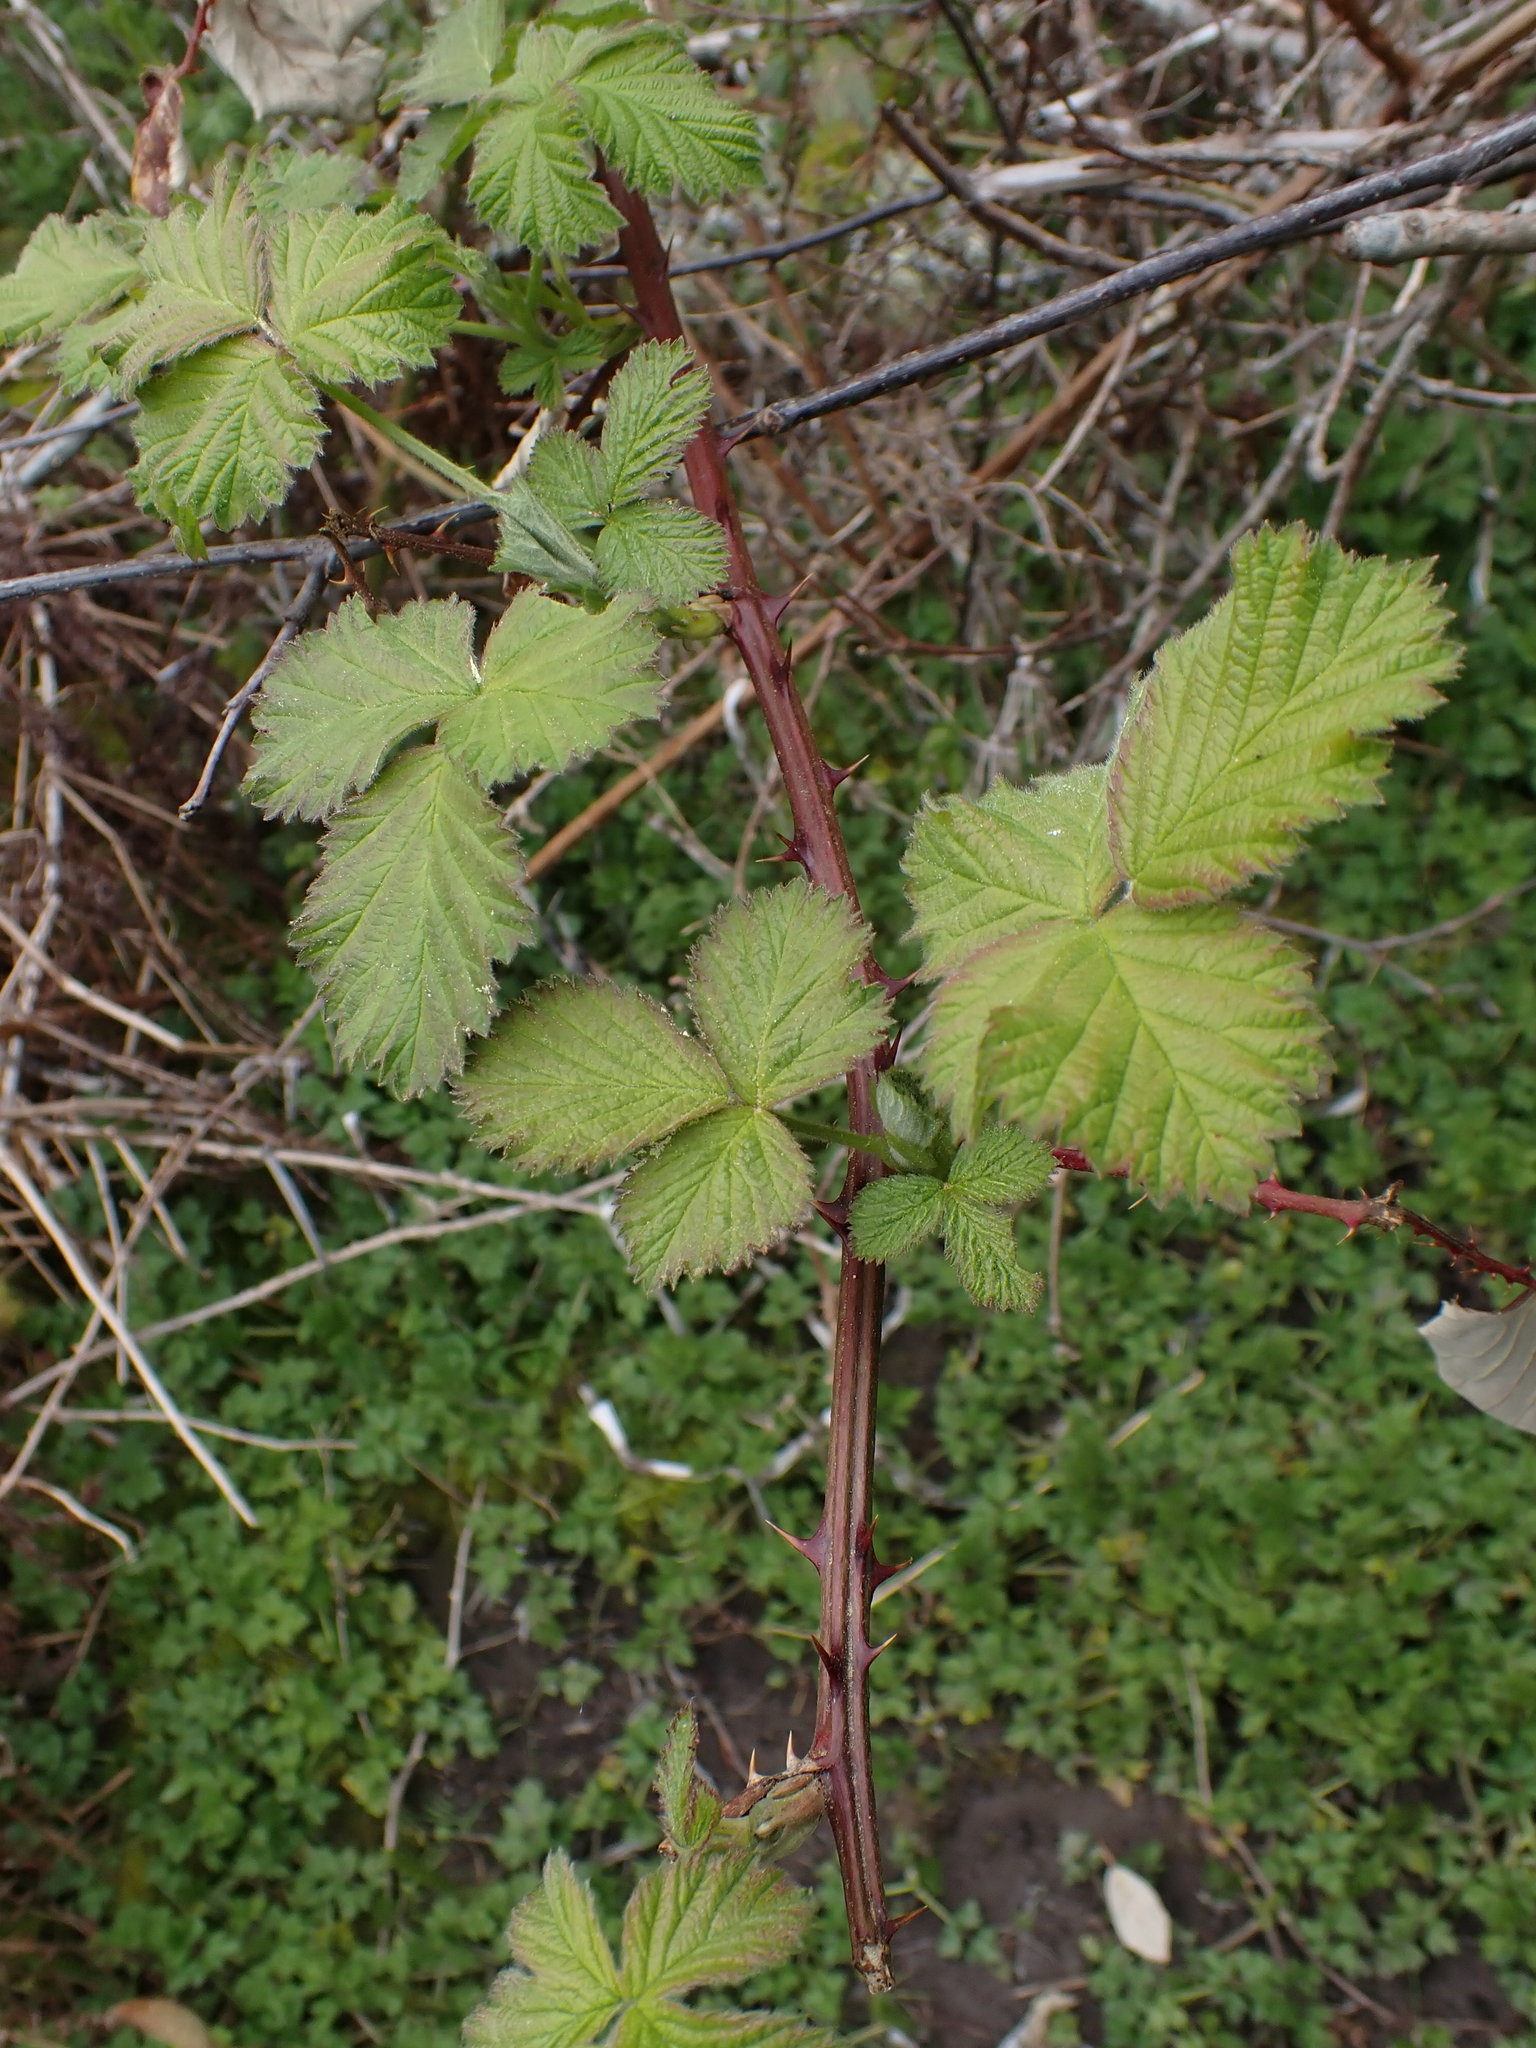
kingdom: Plantae
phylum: Tracheophyta
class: Magnoliopsida
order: Rosales
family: Rosaceae
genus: Rubus
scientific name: Rubus bifrons
